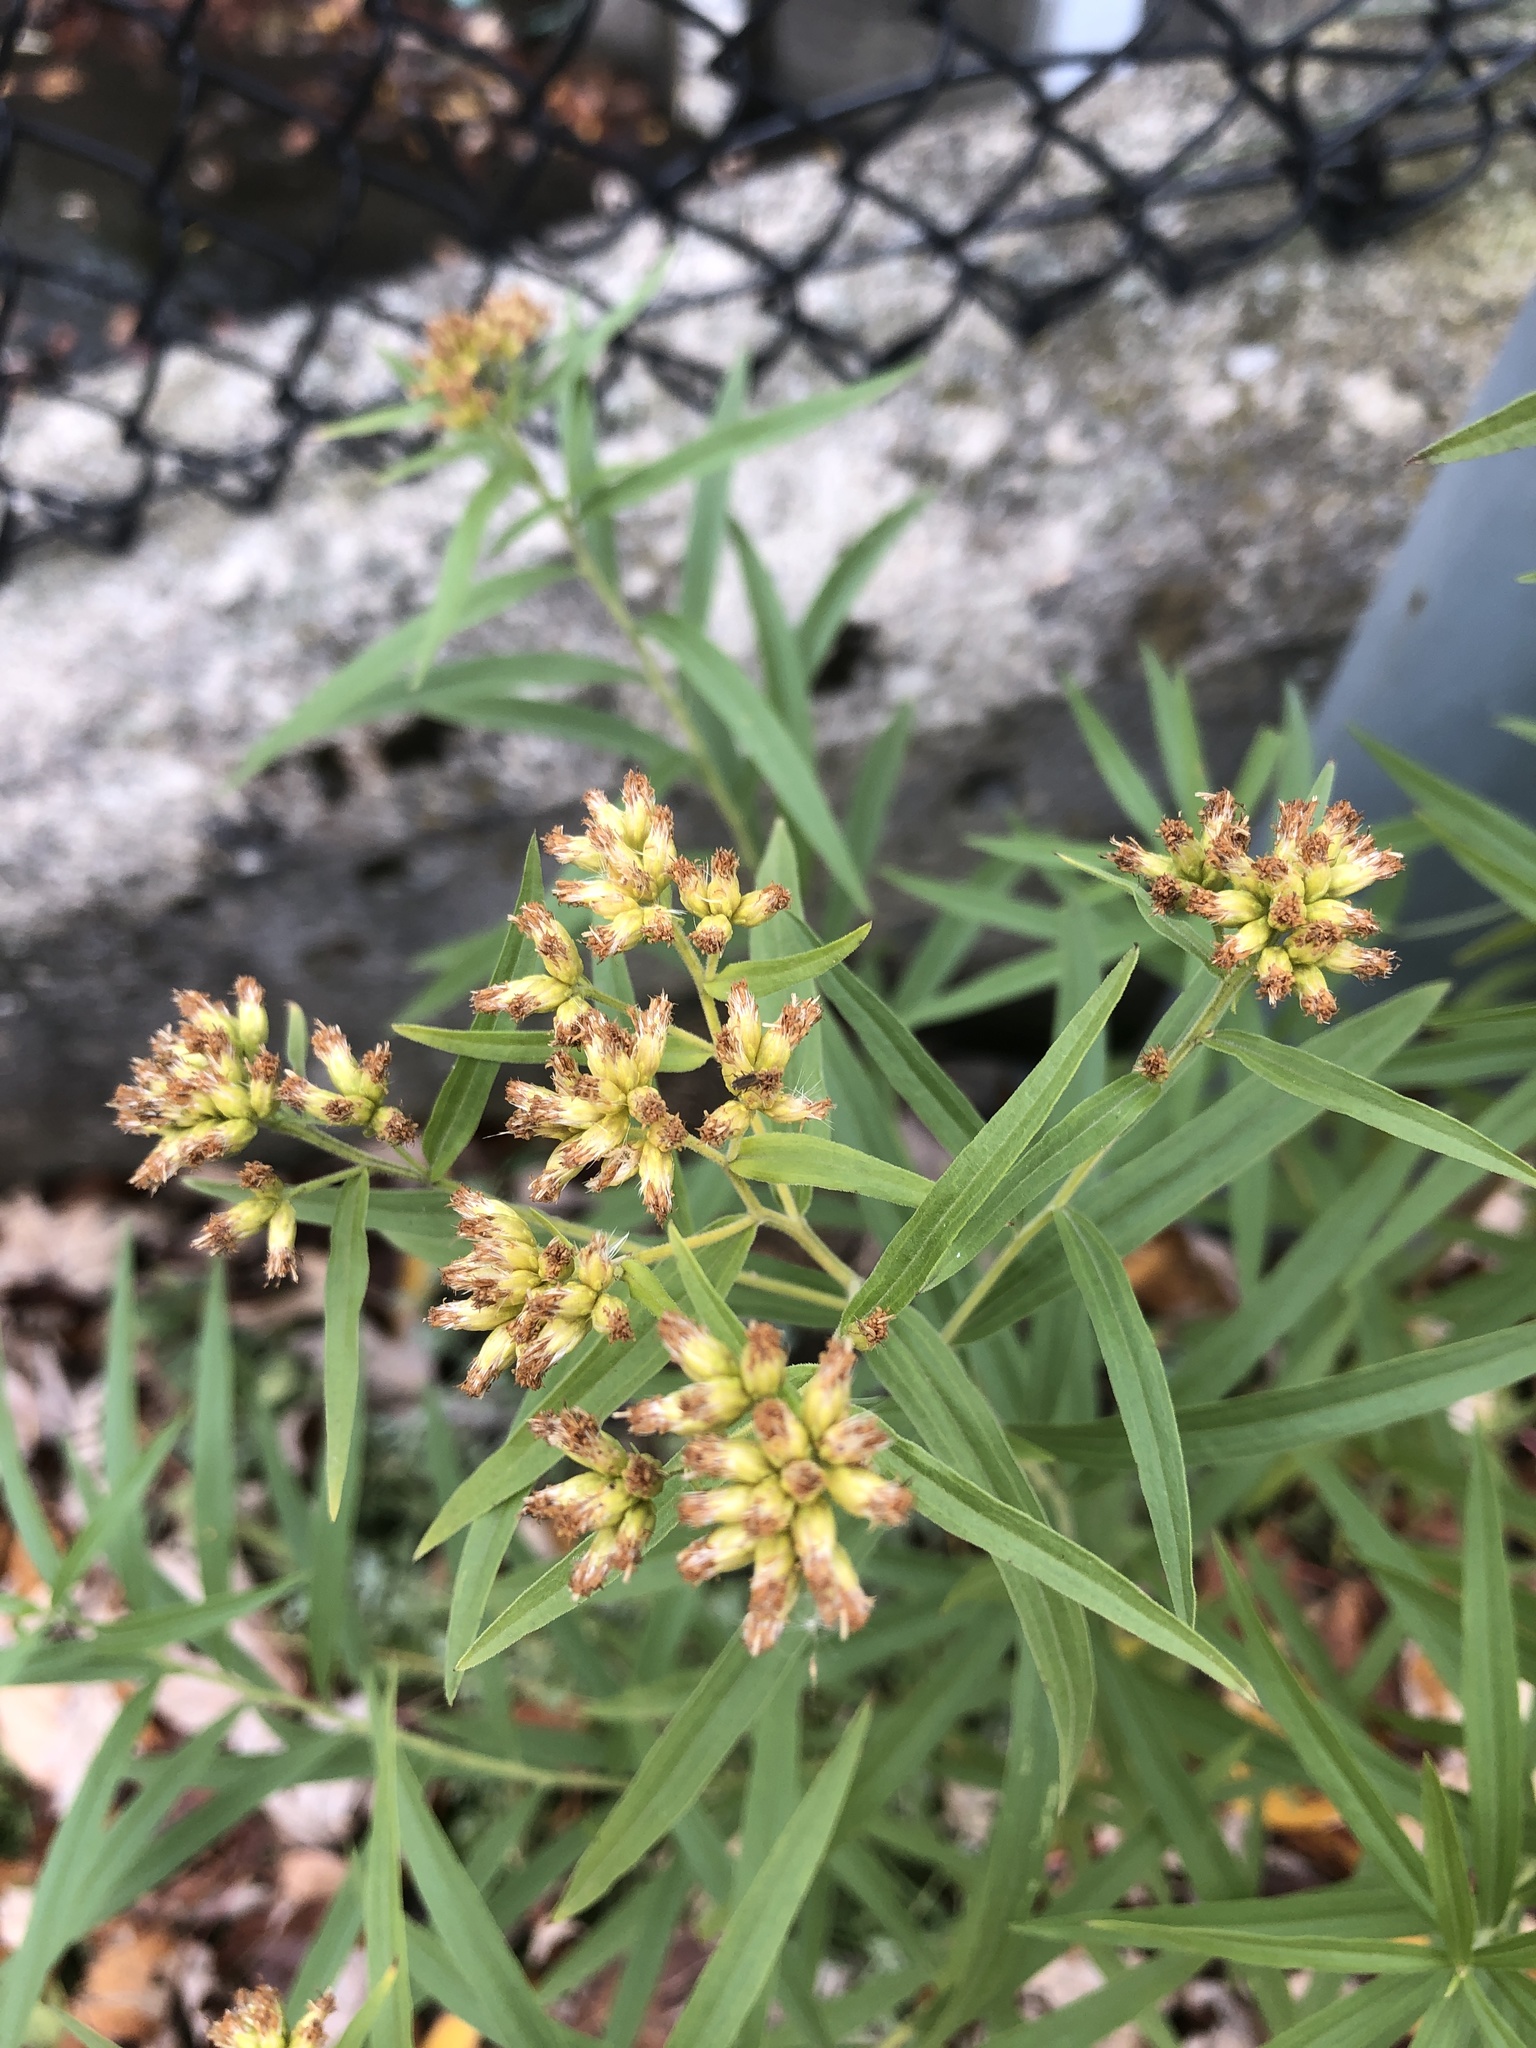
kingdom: Plantae
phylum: Tracheophyta
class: Magnoliopsida
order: Asterales
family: Asteraceae
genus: Euthamia
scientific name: Euthamia graminifolia
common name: Common goldentop
